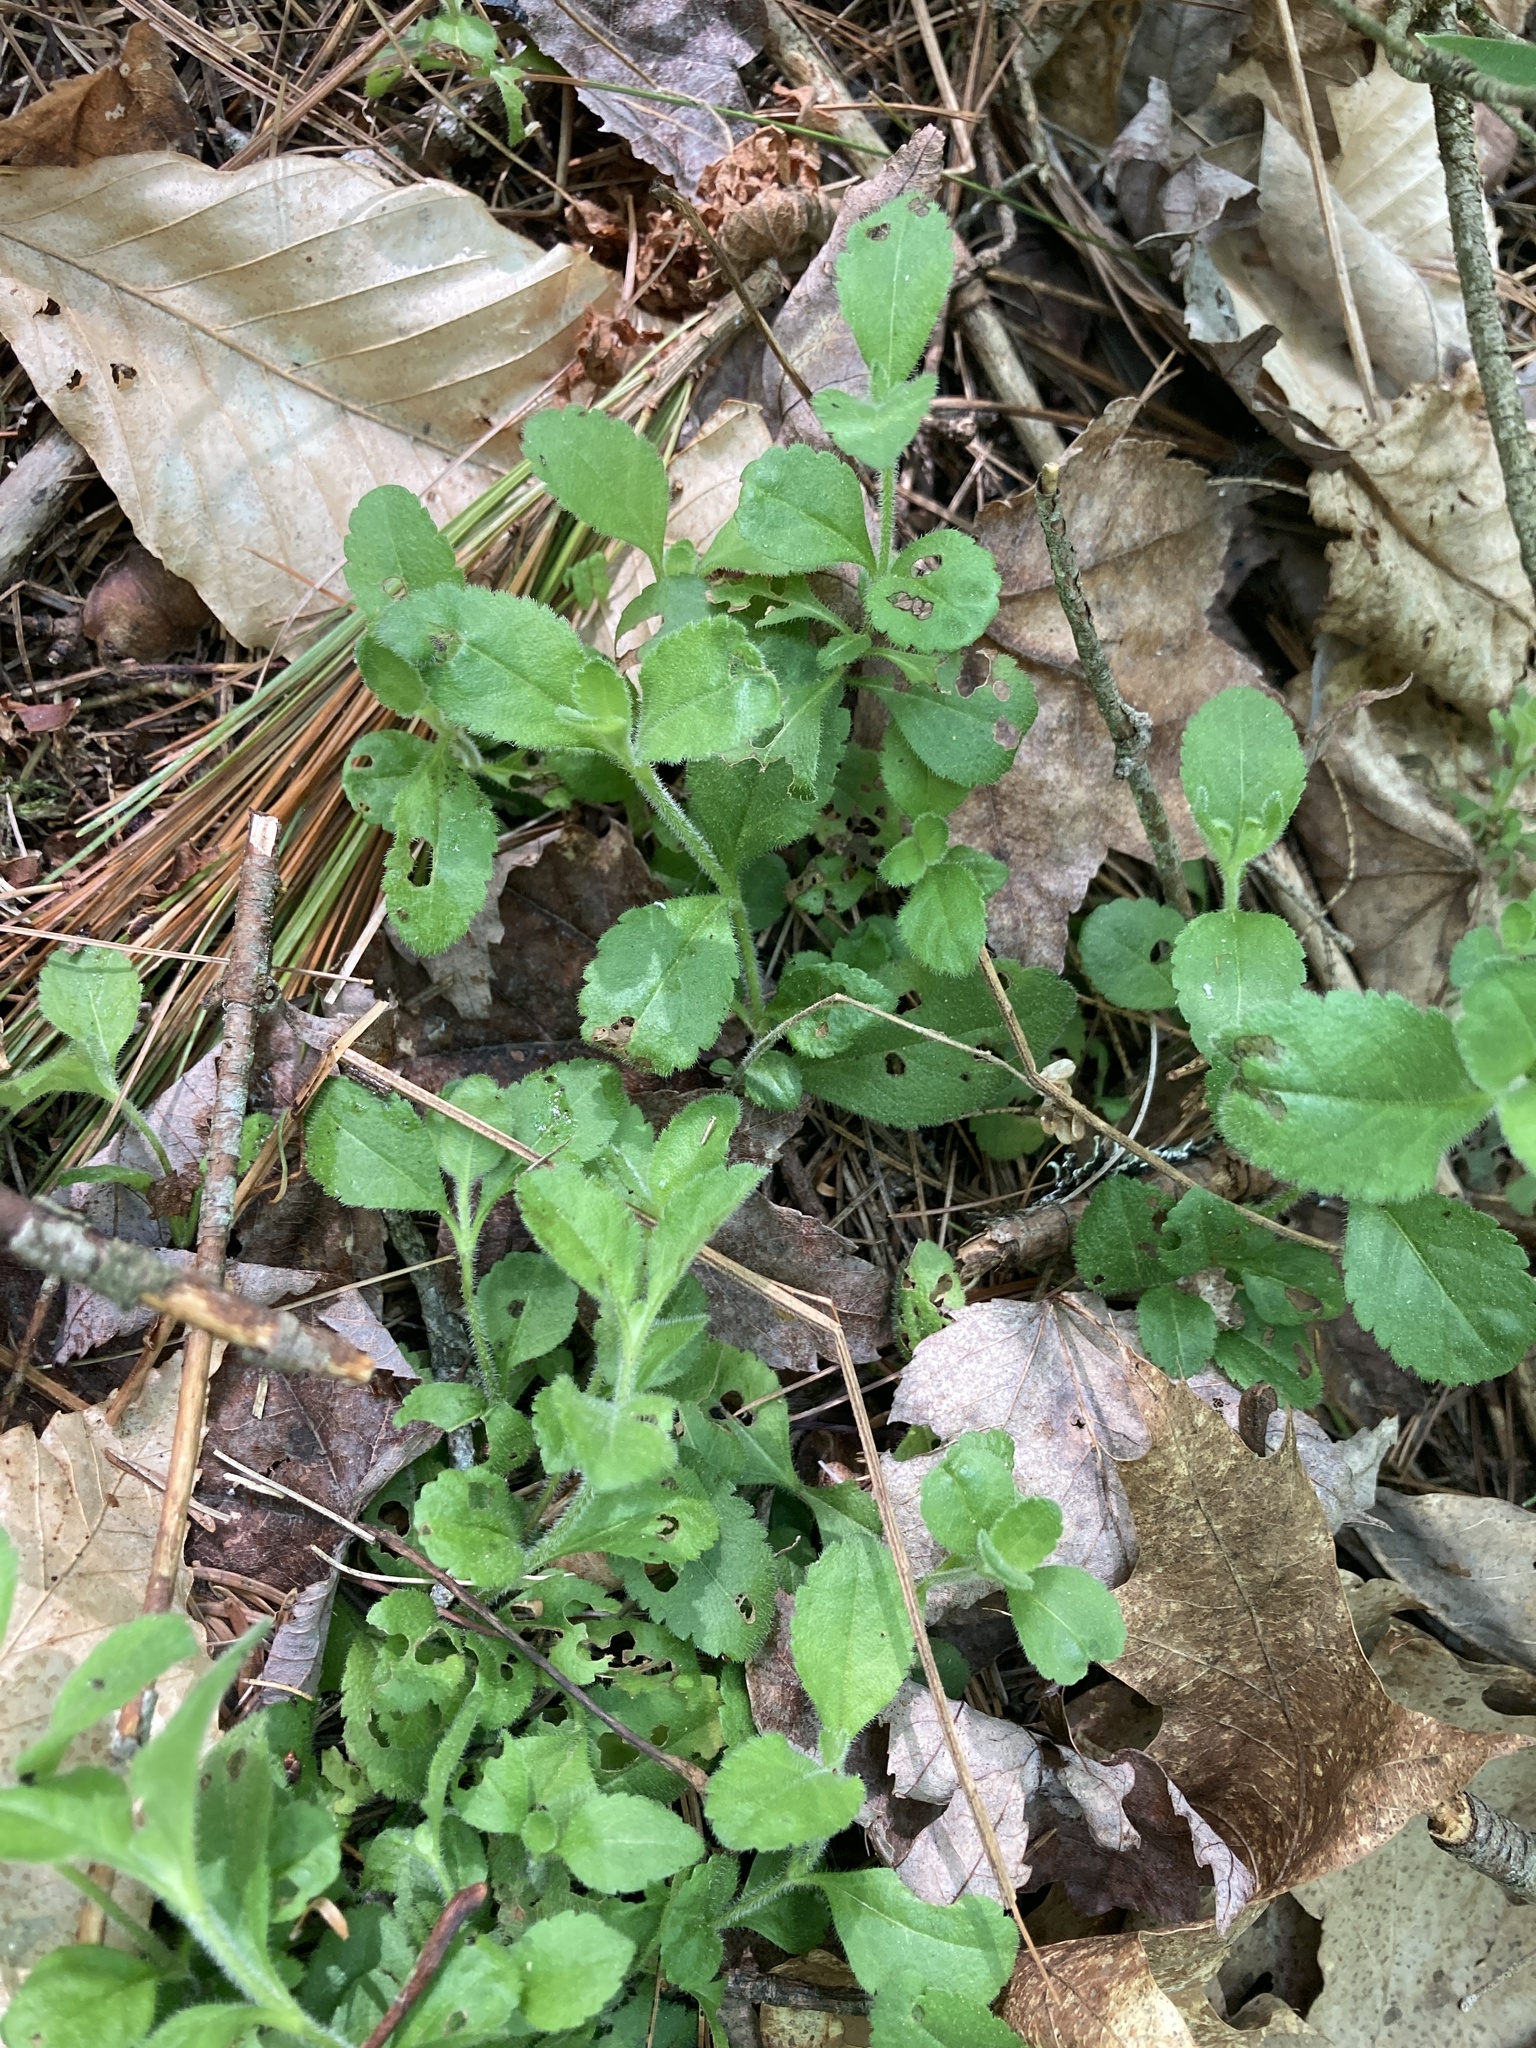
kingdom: Plantae
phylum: Tracheophyta
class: Magnoliopsida
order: Lamiales
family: Plantaginaceae
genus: Veronica
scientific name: Veronica officinalis
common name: Common speedwell
